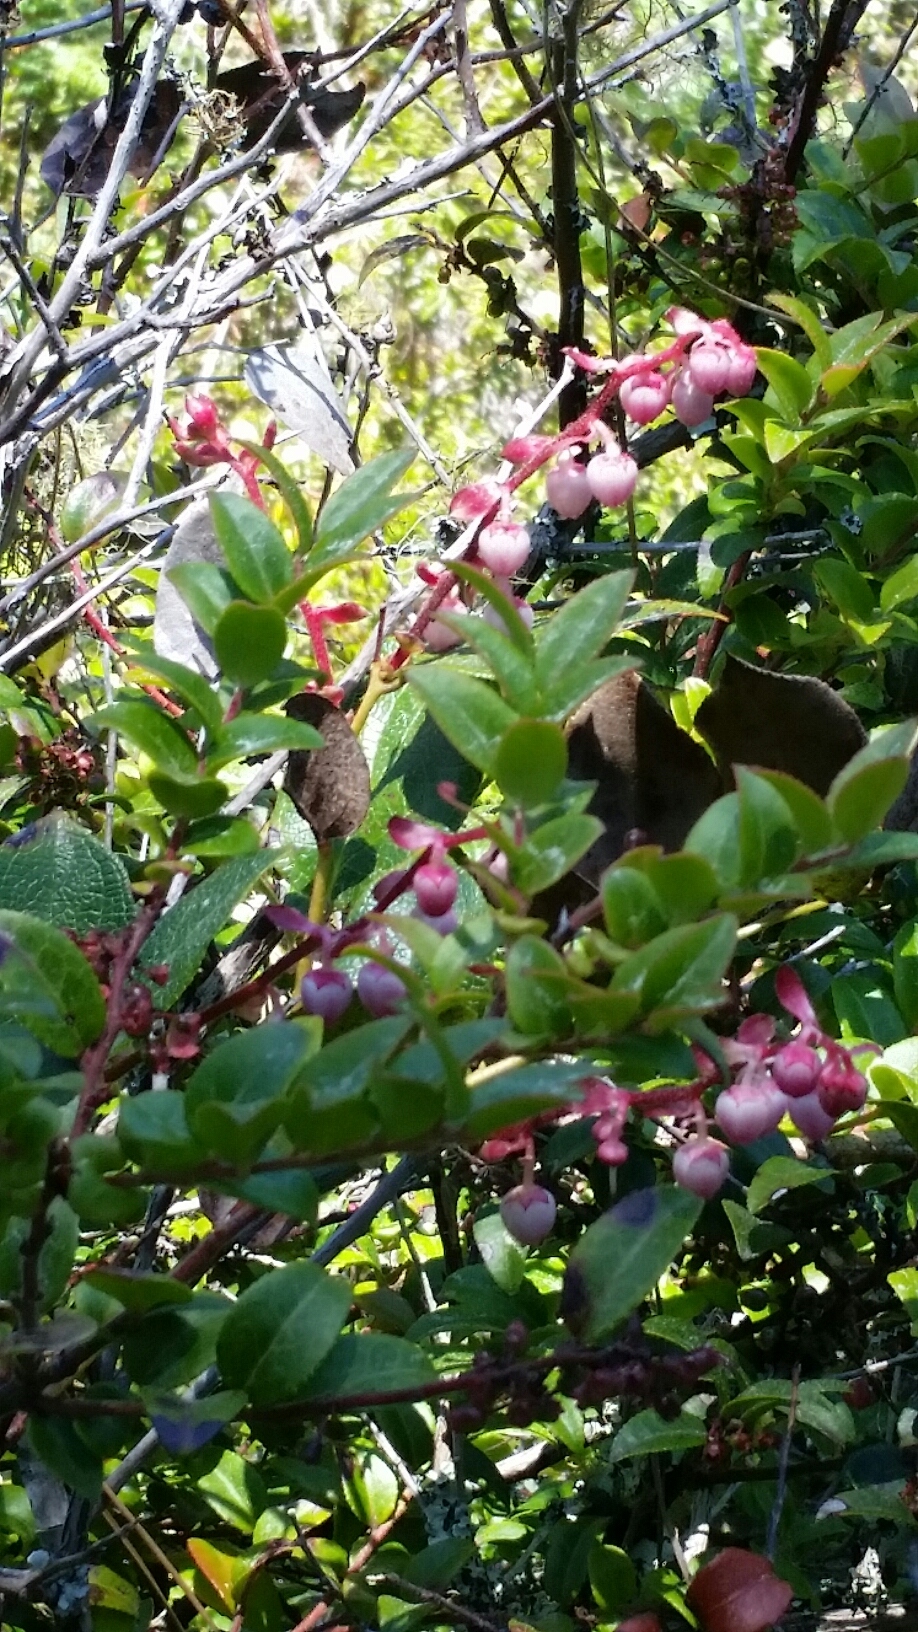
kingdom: Plantae
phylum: Tracheophyta
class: Magnoliopsida
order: Ericales
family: Ericaceae
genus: Gaultheria
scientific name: Gaultheria shallon
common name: Shallon
